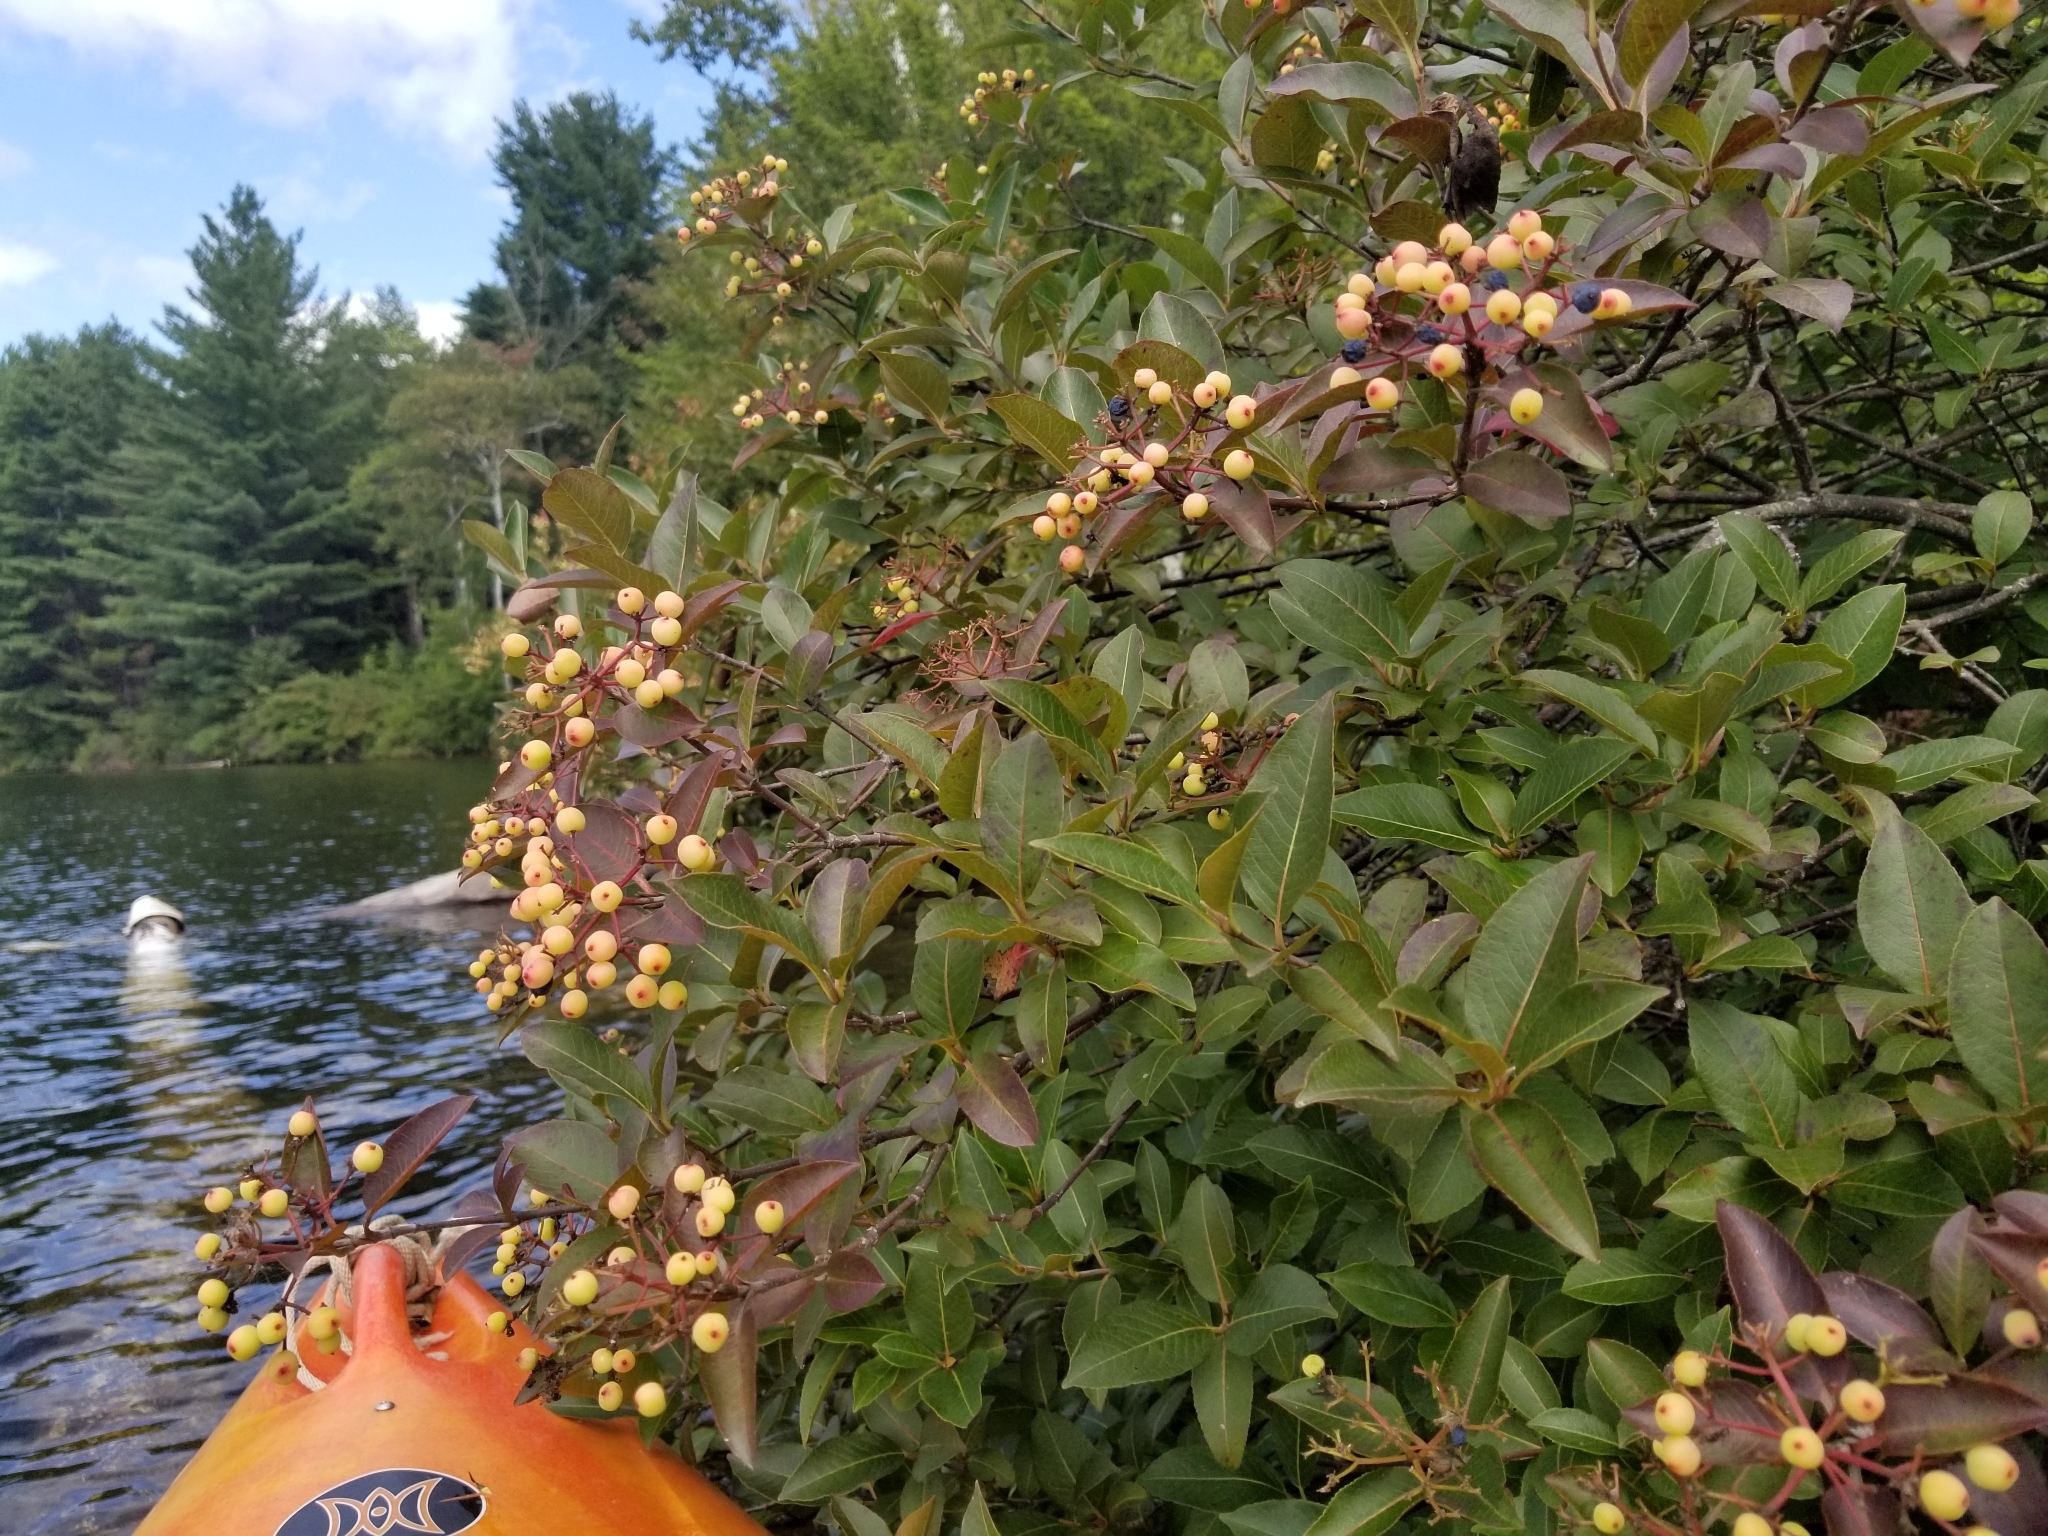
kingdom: Plantae
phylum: Tracheophyta
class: Magnoliopsida
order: Dipsacales
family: Viburnaceae
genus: Viburnum
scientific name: Viburnum cassinoides
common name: Swamp haw
